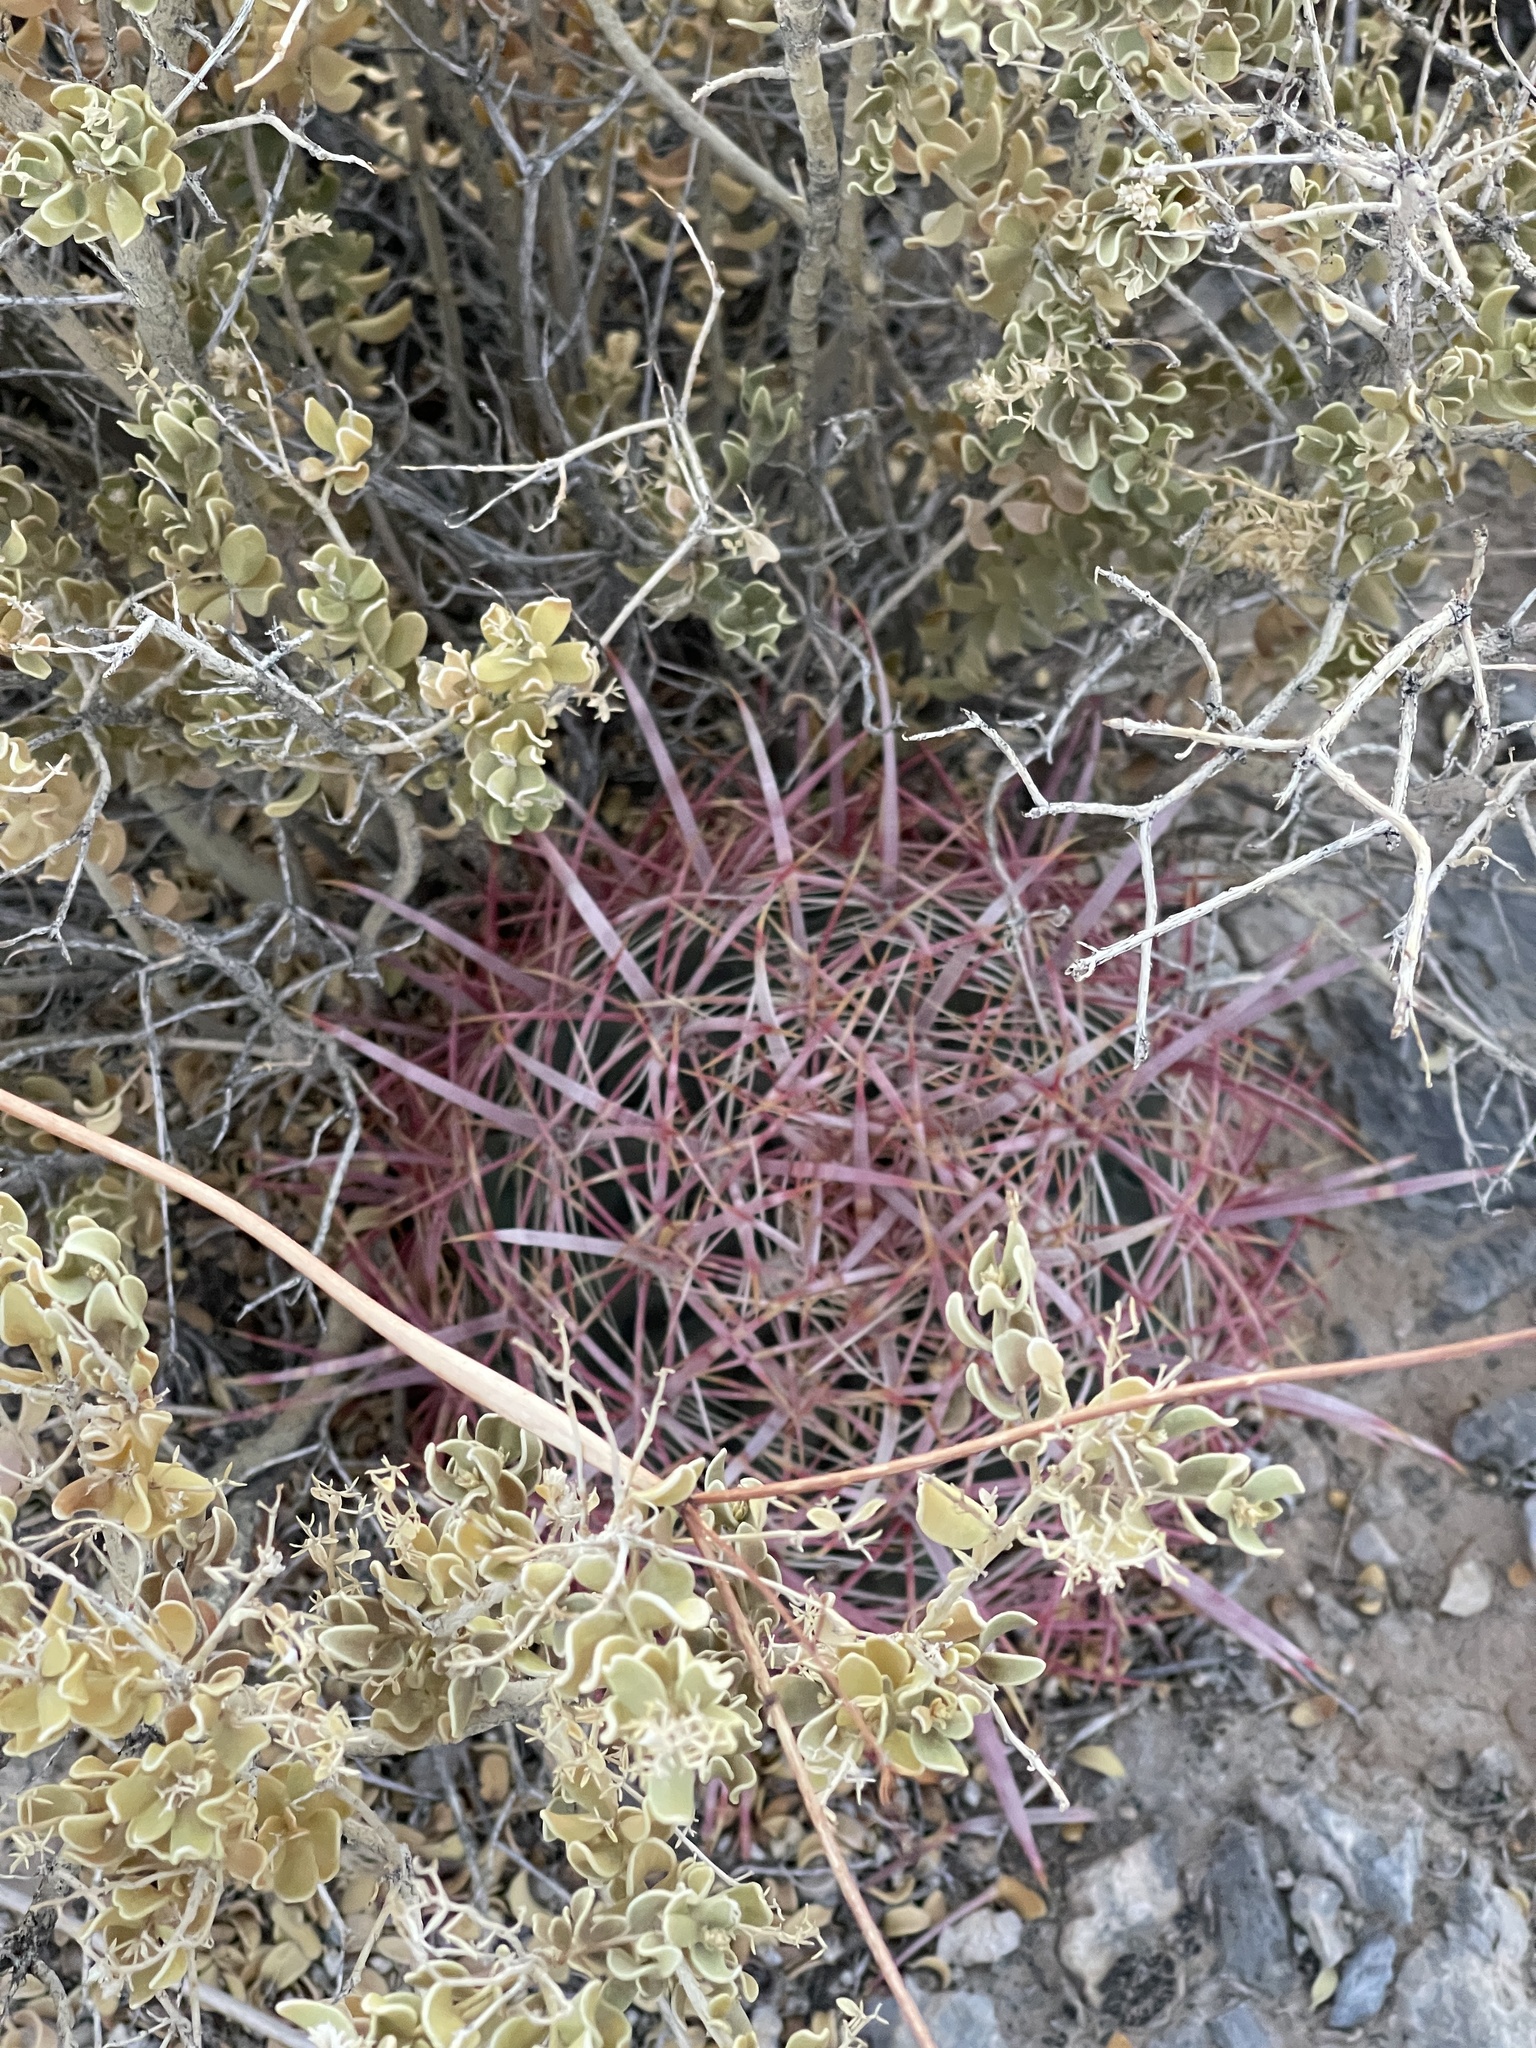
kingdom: Plantae
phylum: Tracheophyta
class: Magnoliopsida
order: Caryophyllales
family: Cactaceae
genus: Ferocactus
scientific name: Ferocactus cylindraceus
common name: California barrel cactus
